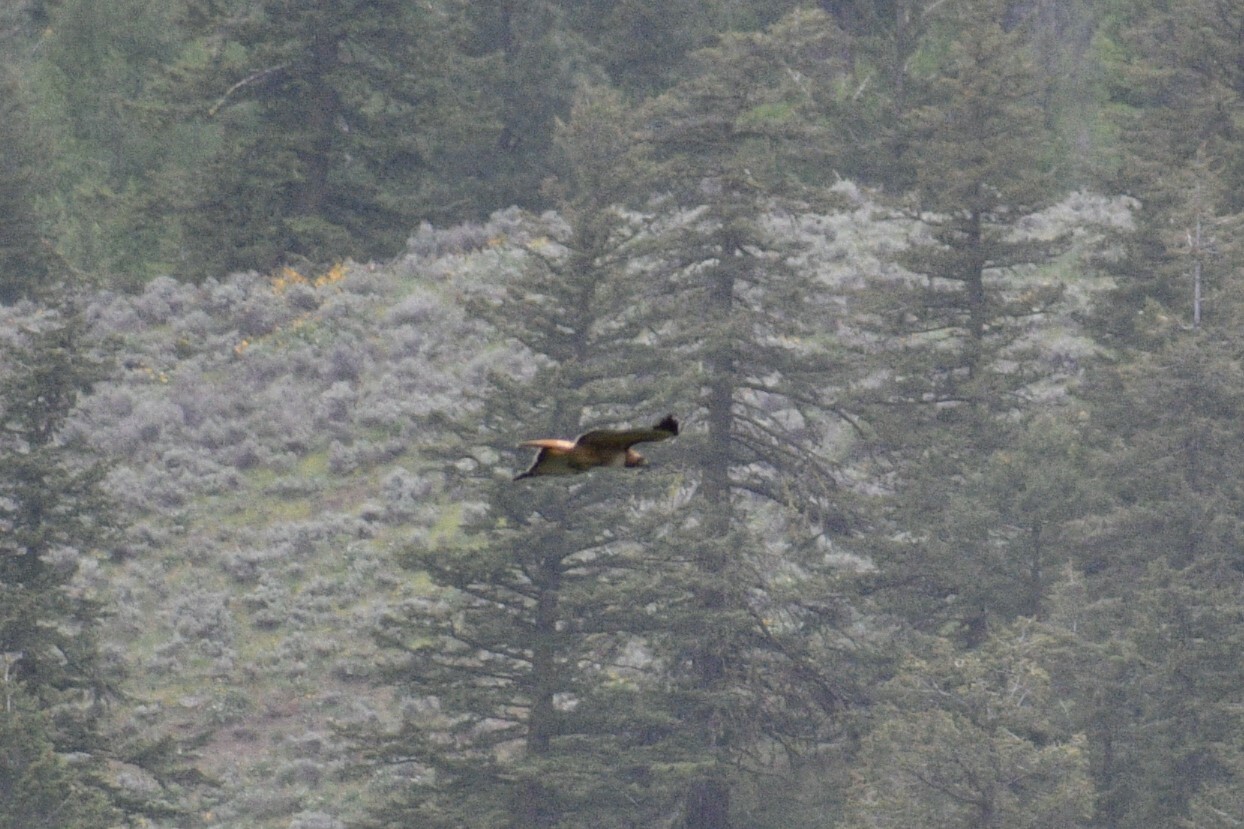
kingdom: Animalia
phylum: Chordata
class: Aves
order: Accipitriformes
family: Accipitridae
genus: Buteo
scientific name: Buteo jamaicensis
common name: Red-tailed hawk
